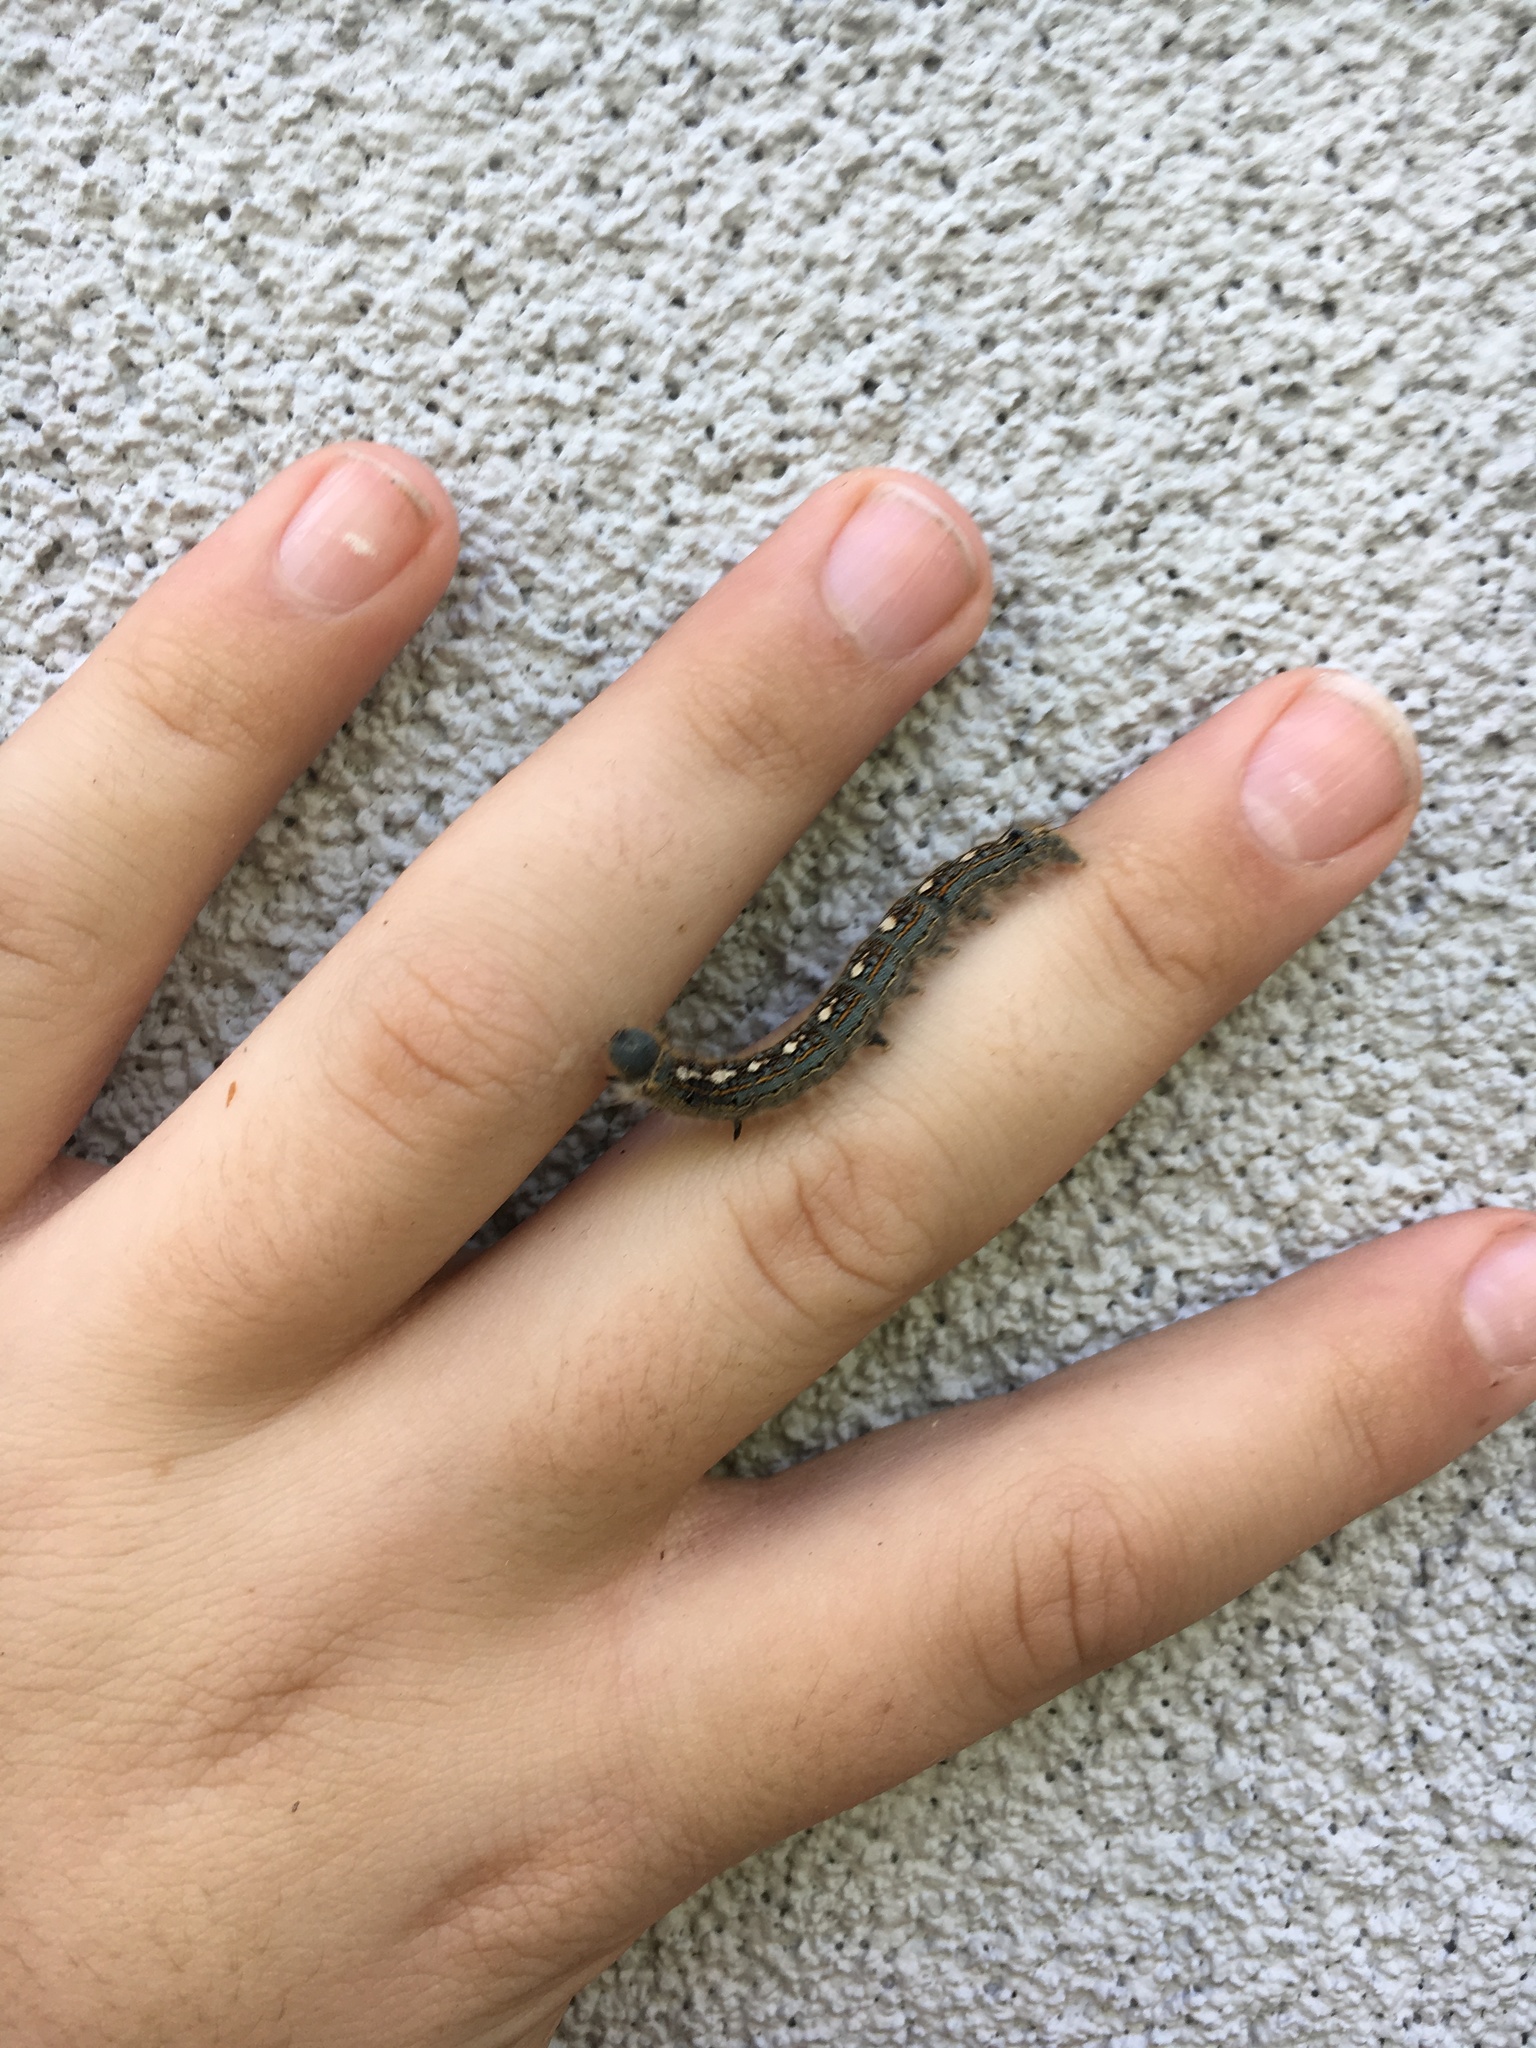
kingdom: Animalia
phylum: Arthropoda
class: Insecta
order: Lepidoptera
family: Lasiocampidae
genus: Malacosoma
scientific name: Malacosoma disstria
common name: Forest tent caterpillar
